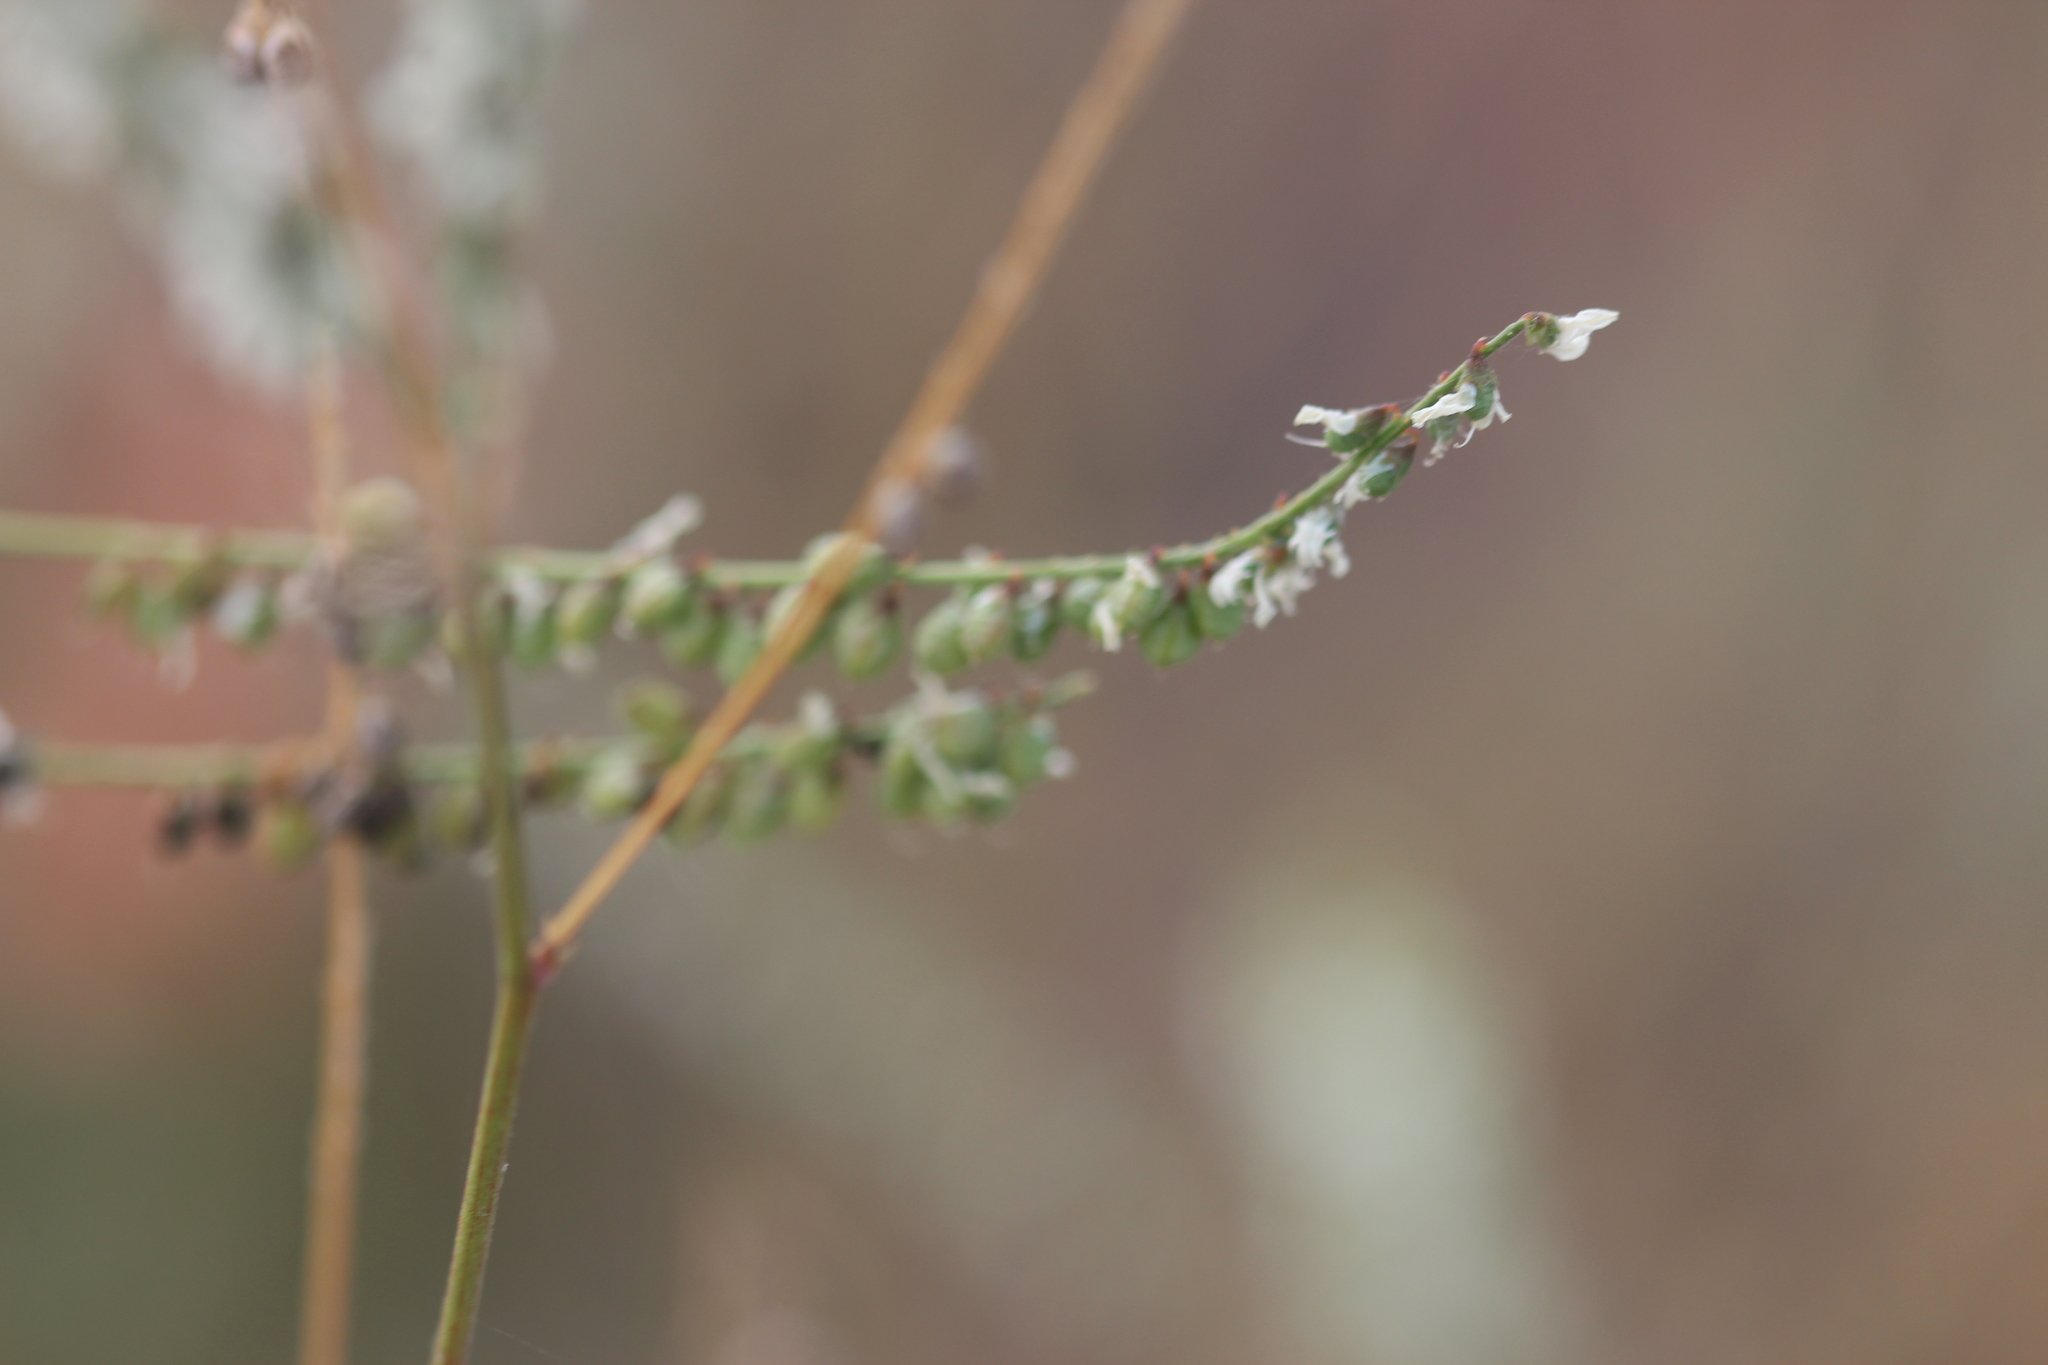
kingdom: Plantae
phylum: Tracheophyta
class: Magnoliopsida
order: Fabales
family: Fabaceae
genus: Melilotus
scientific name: Melilotus albus
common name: White melilot
